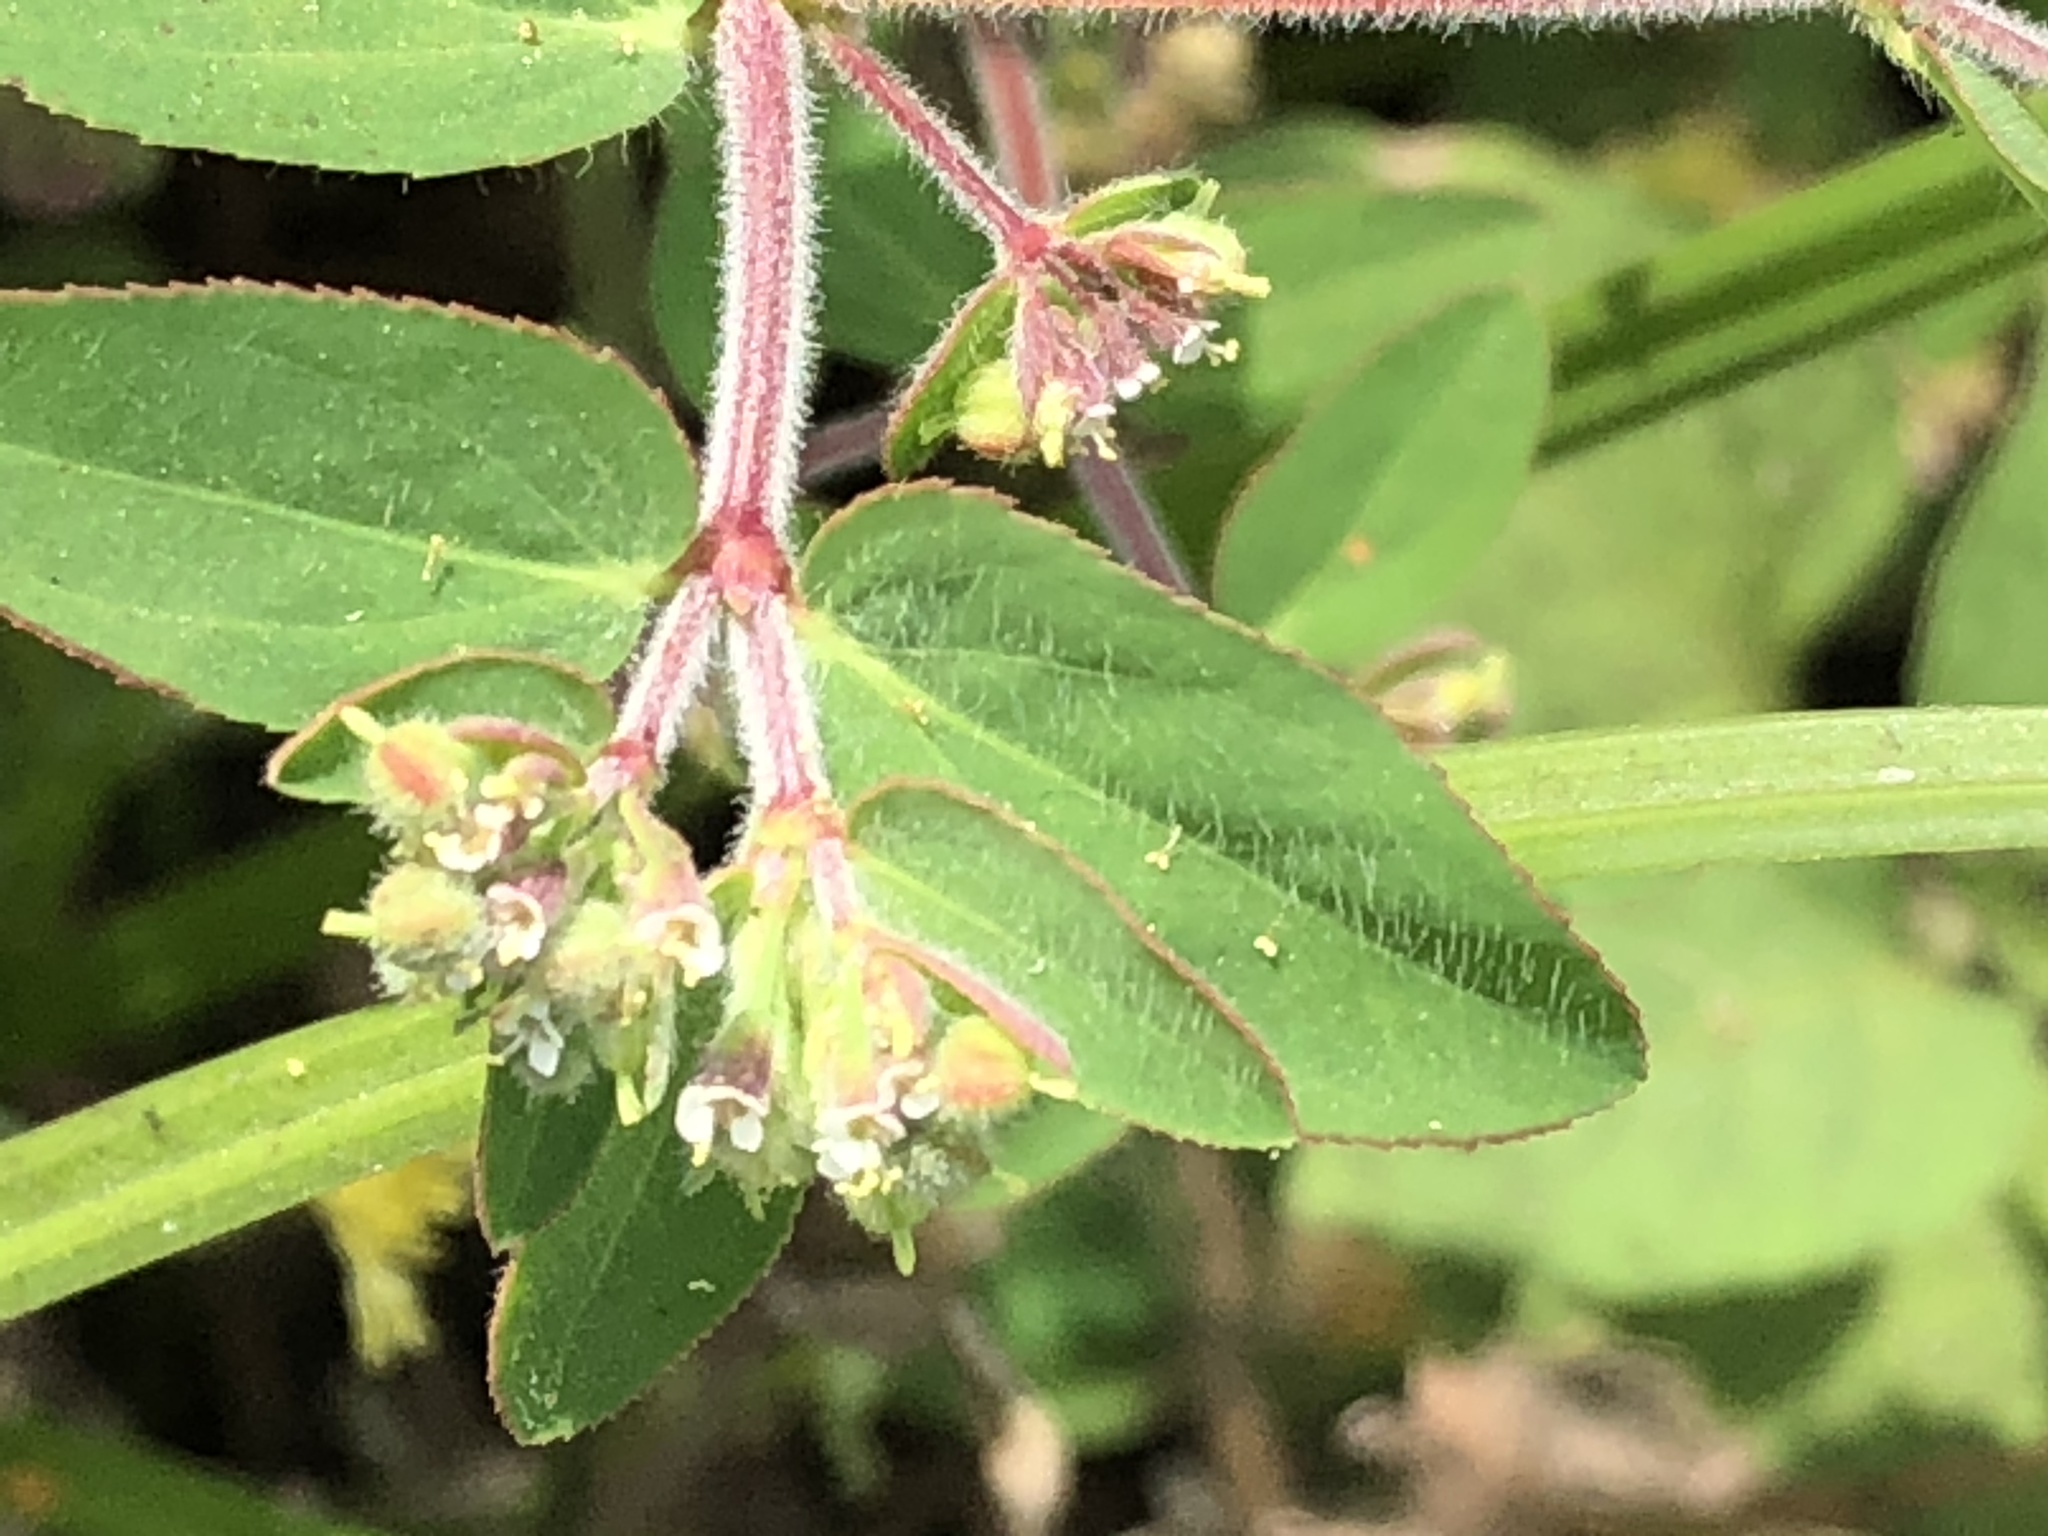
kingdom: Plantae
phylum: Tracheophyta
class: Magnoliopsida
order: Malpighiales
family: Euphorbiaceae
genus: Euphorbia
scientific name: Euphorbia lasiocarpa
